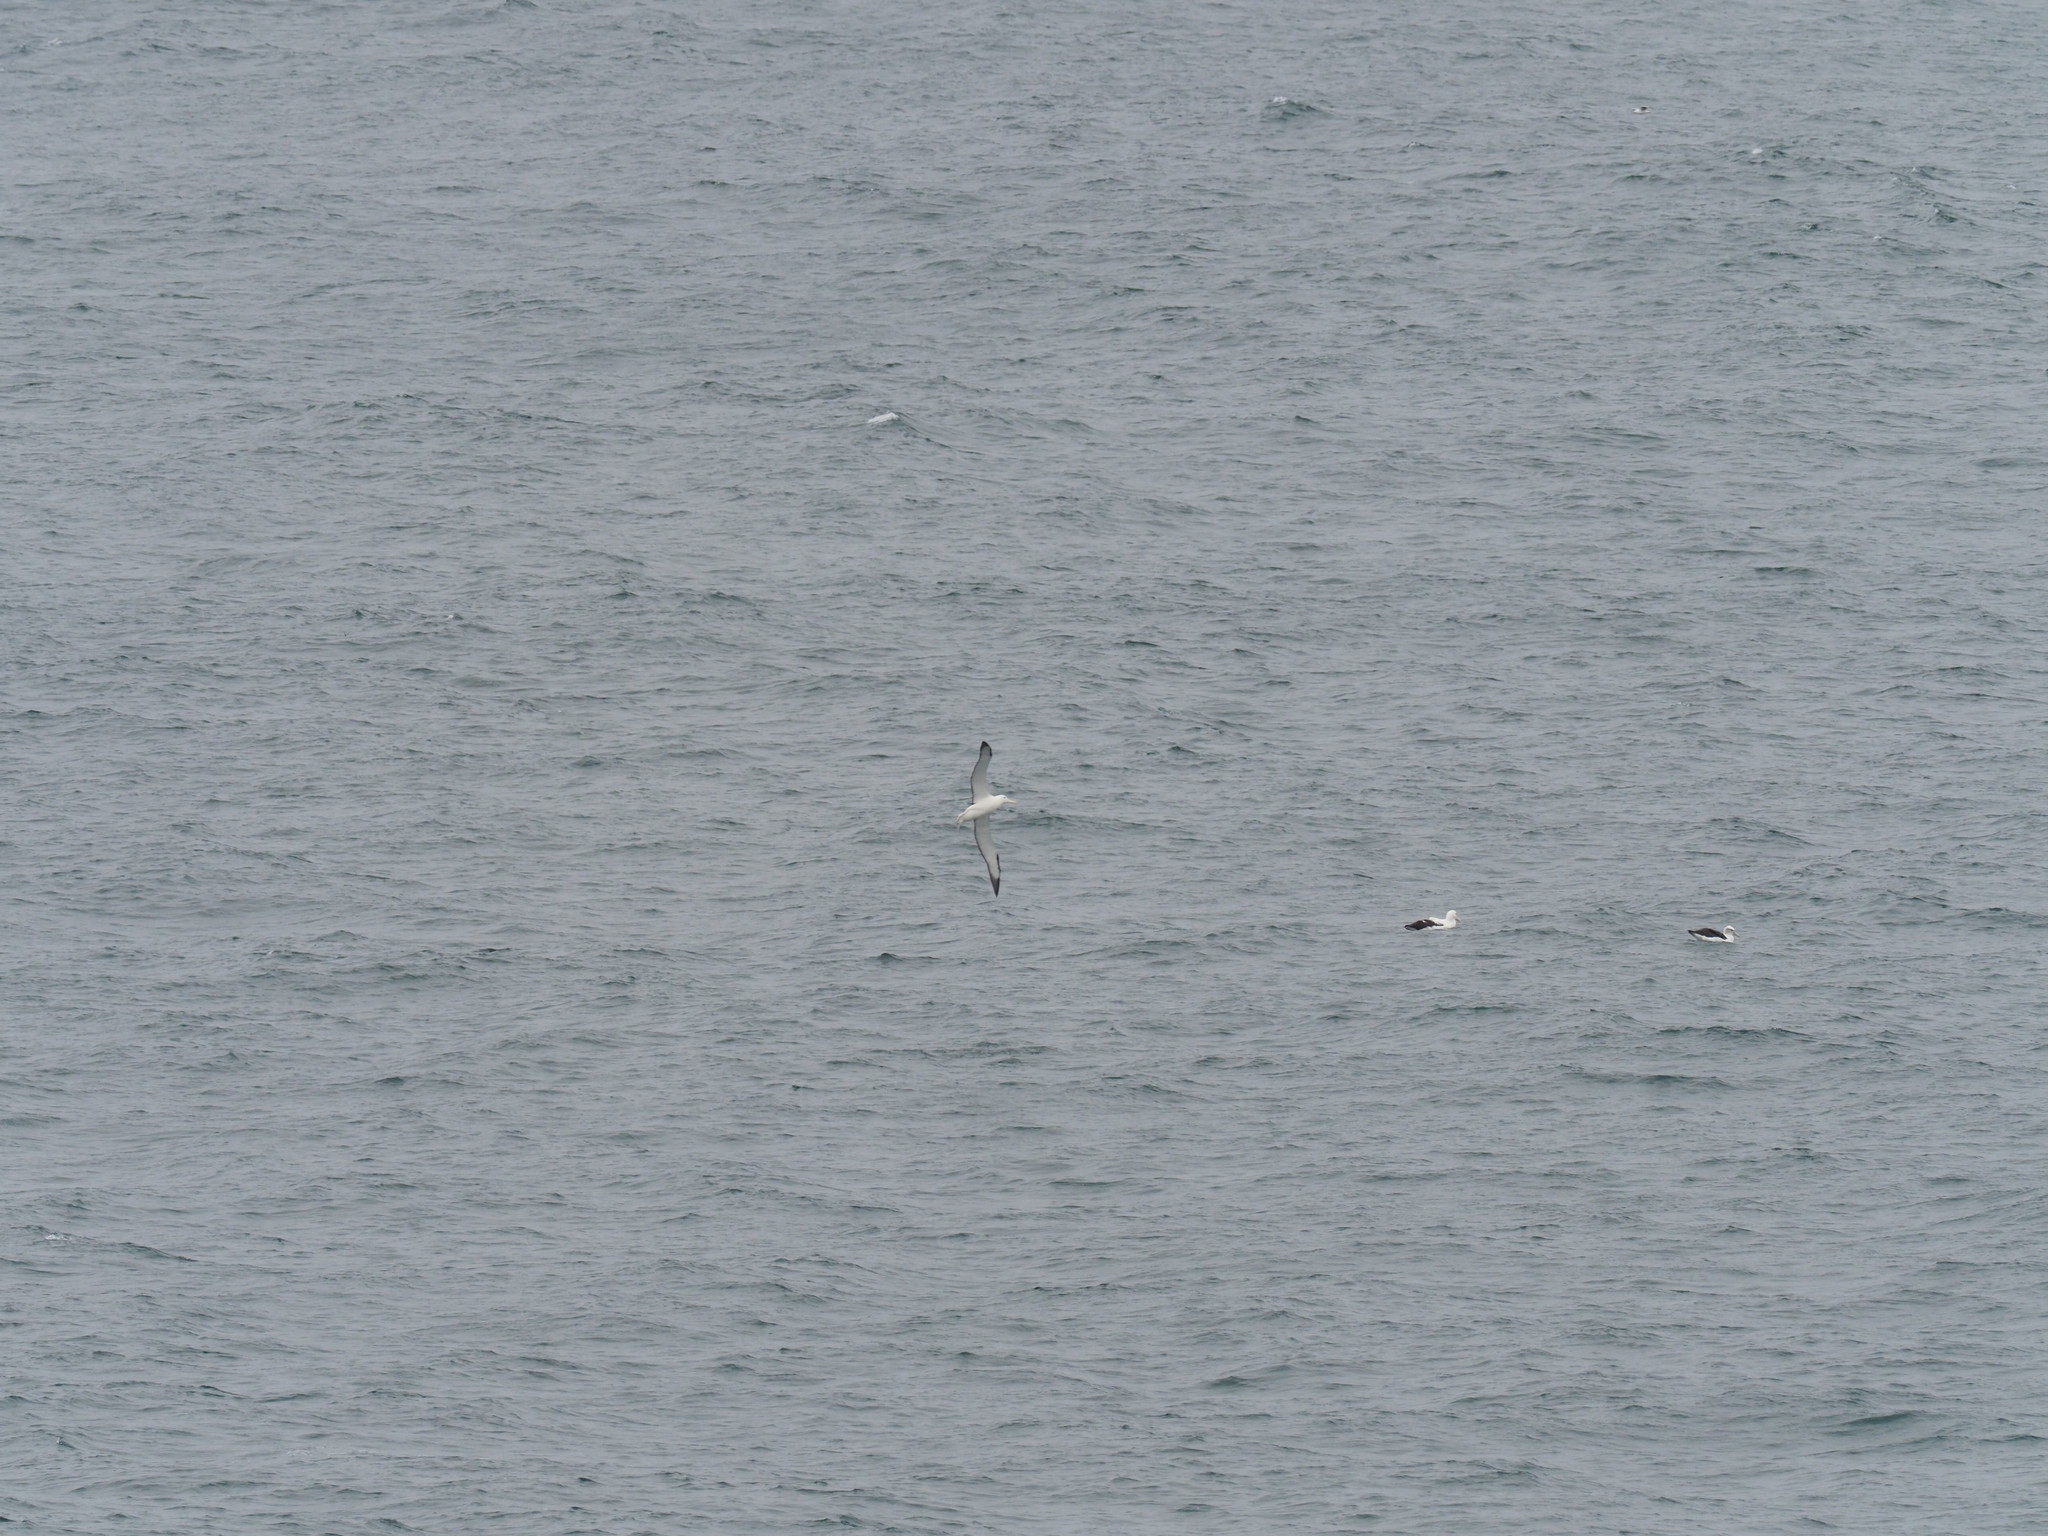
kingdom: Animalia
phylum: Chordata
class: Aves
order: Procellariiformes
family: Diomedeidae
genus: Diomedea
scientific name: Diomedea sanfordi
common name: Northern royal albatross
